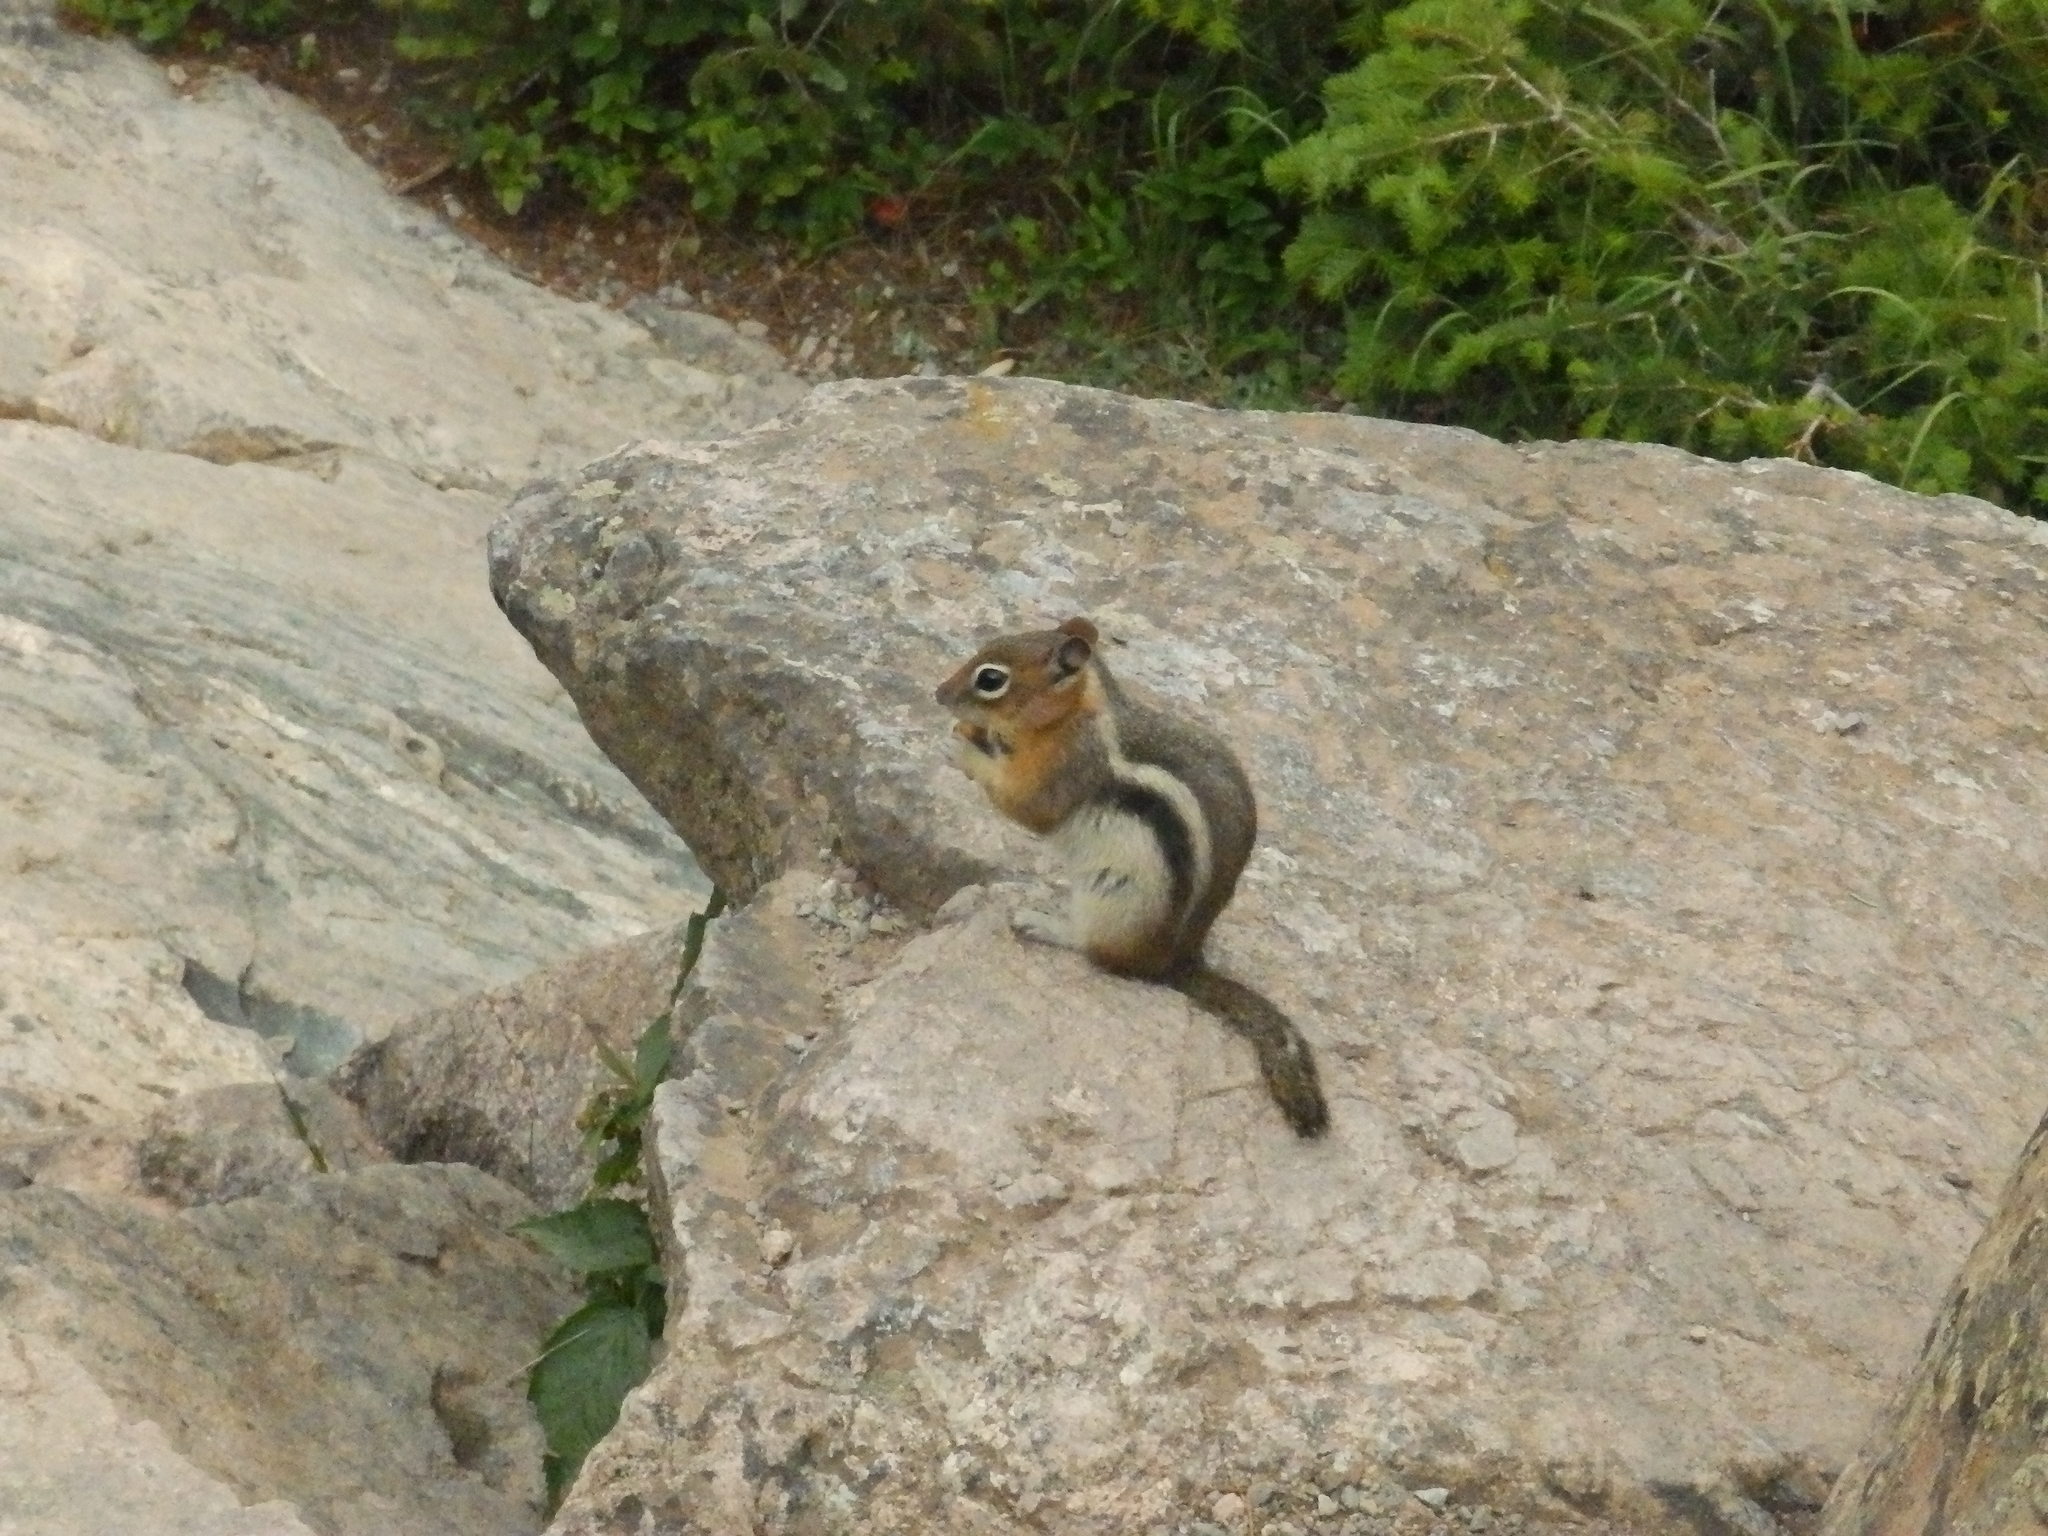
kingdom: Animalia
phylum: Chordata
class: Mammalia
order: Rodentia
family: Sciuridae
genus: Callospermophilus
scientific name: Callospermophilus lateralis
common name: Golden-mantled ground squirrel
